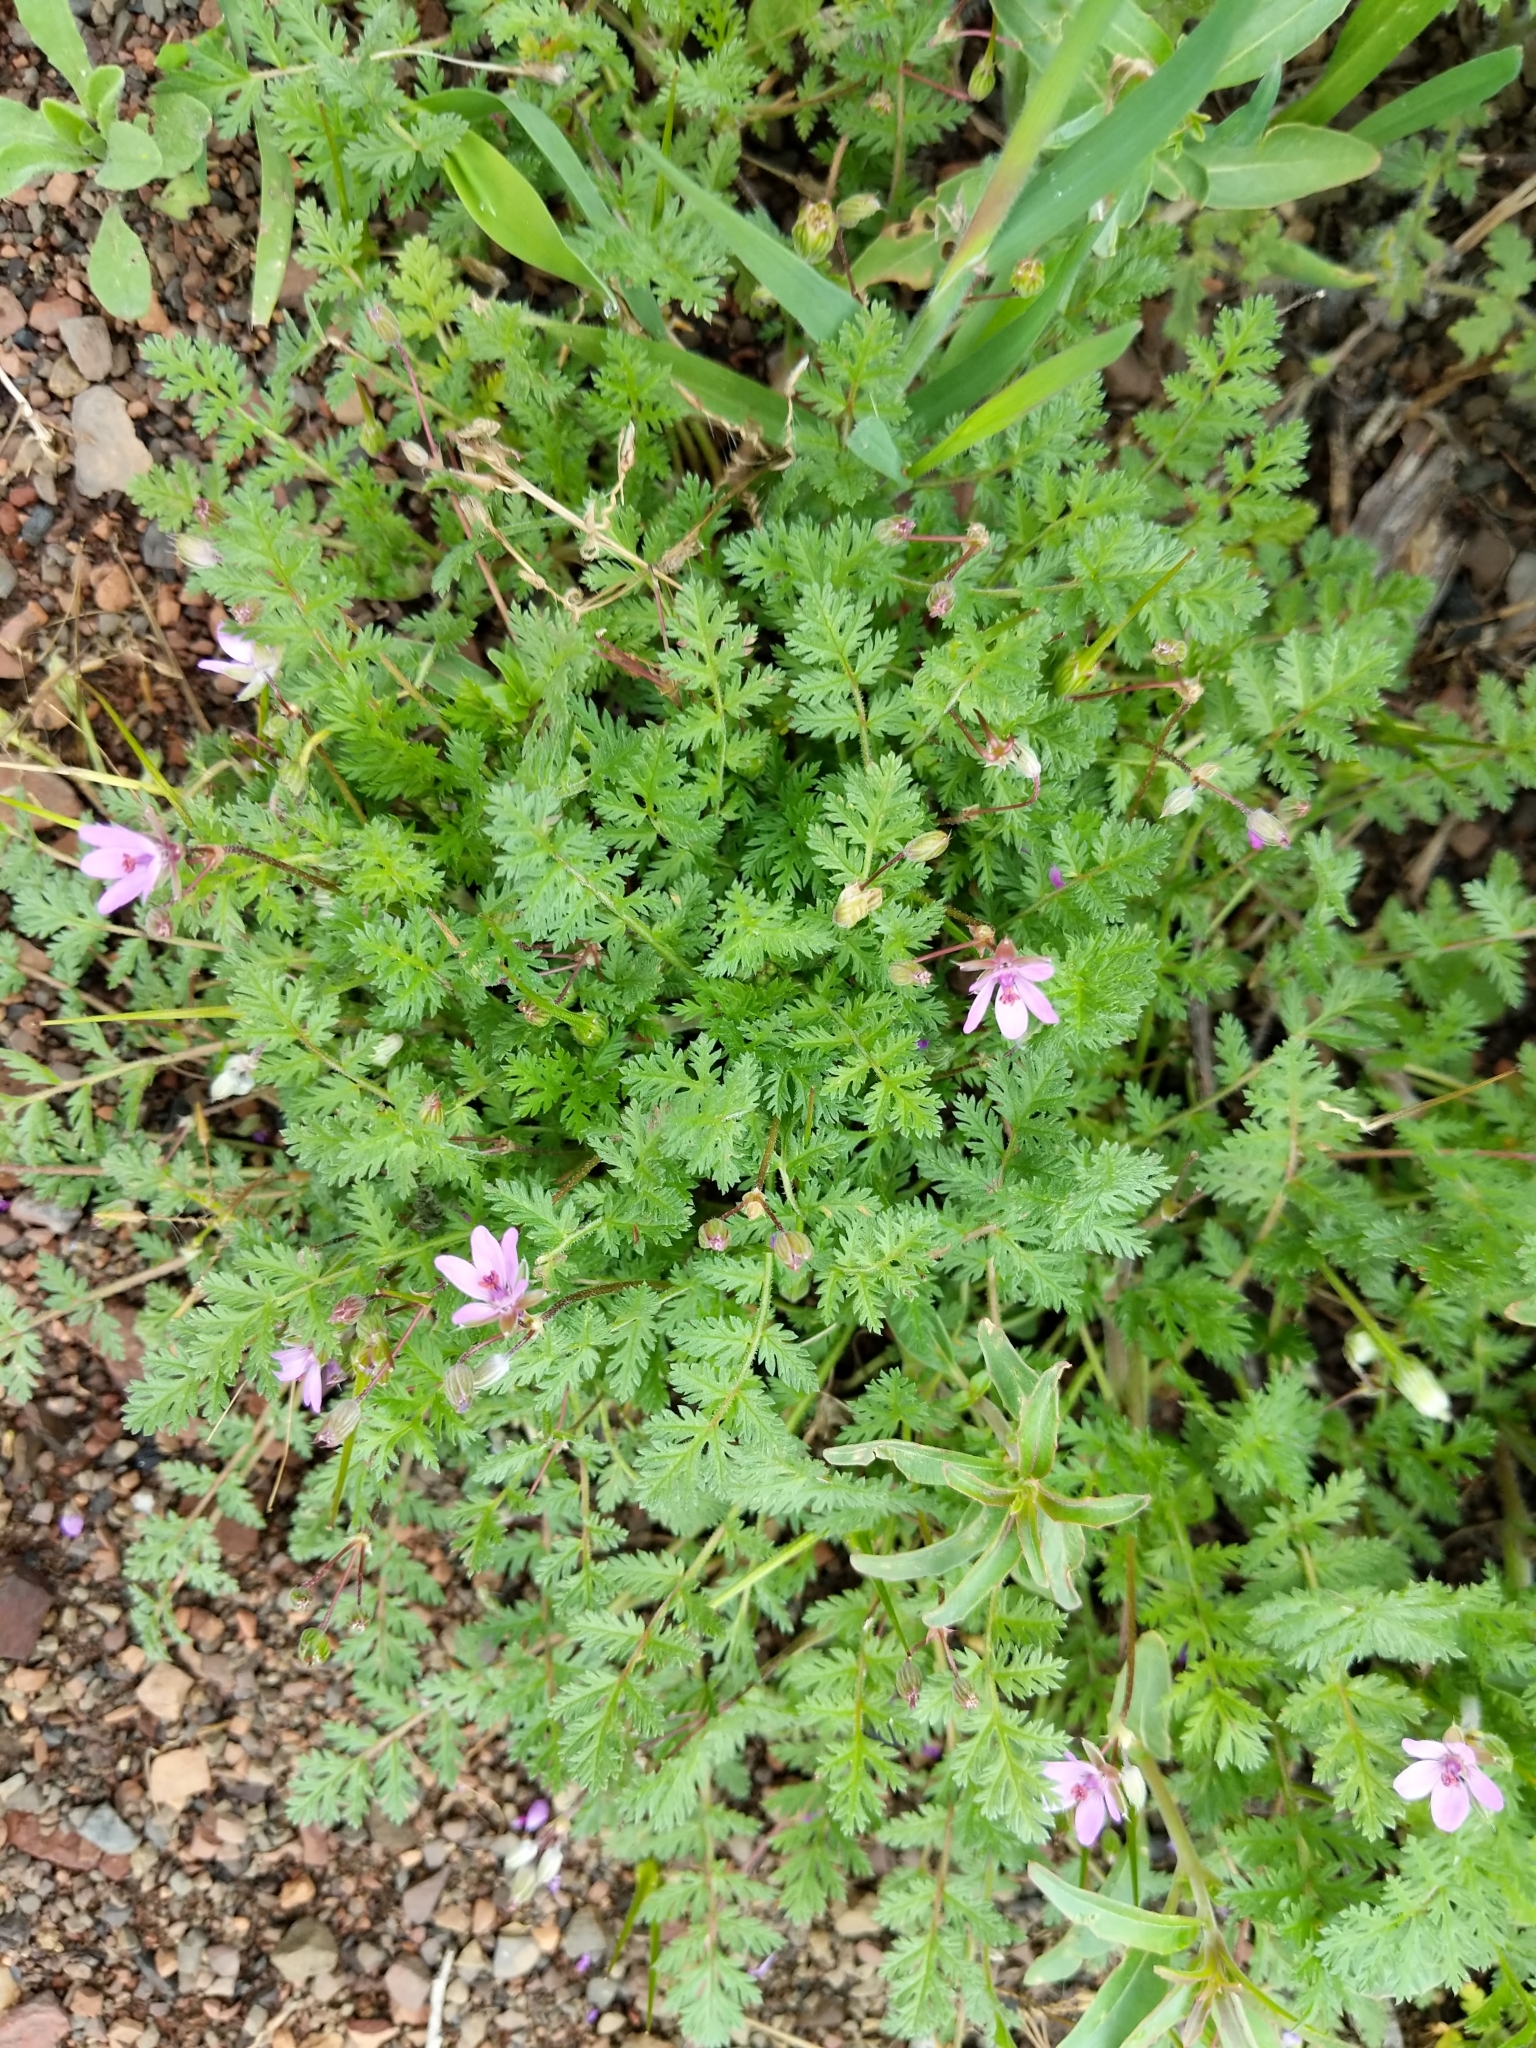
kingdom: Plantae
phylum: Tracheophyta
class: Magnoliopsida
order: Geraniales
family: Geraniaceae
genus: Erodium
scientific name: Erodium cicutarium
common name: Common stork's-bill
